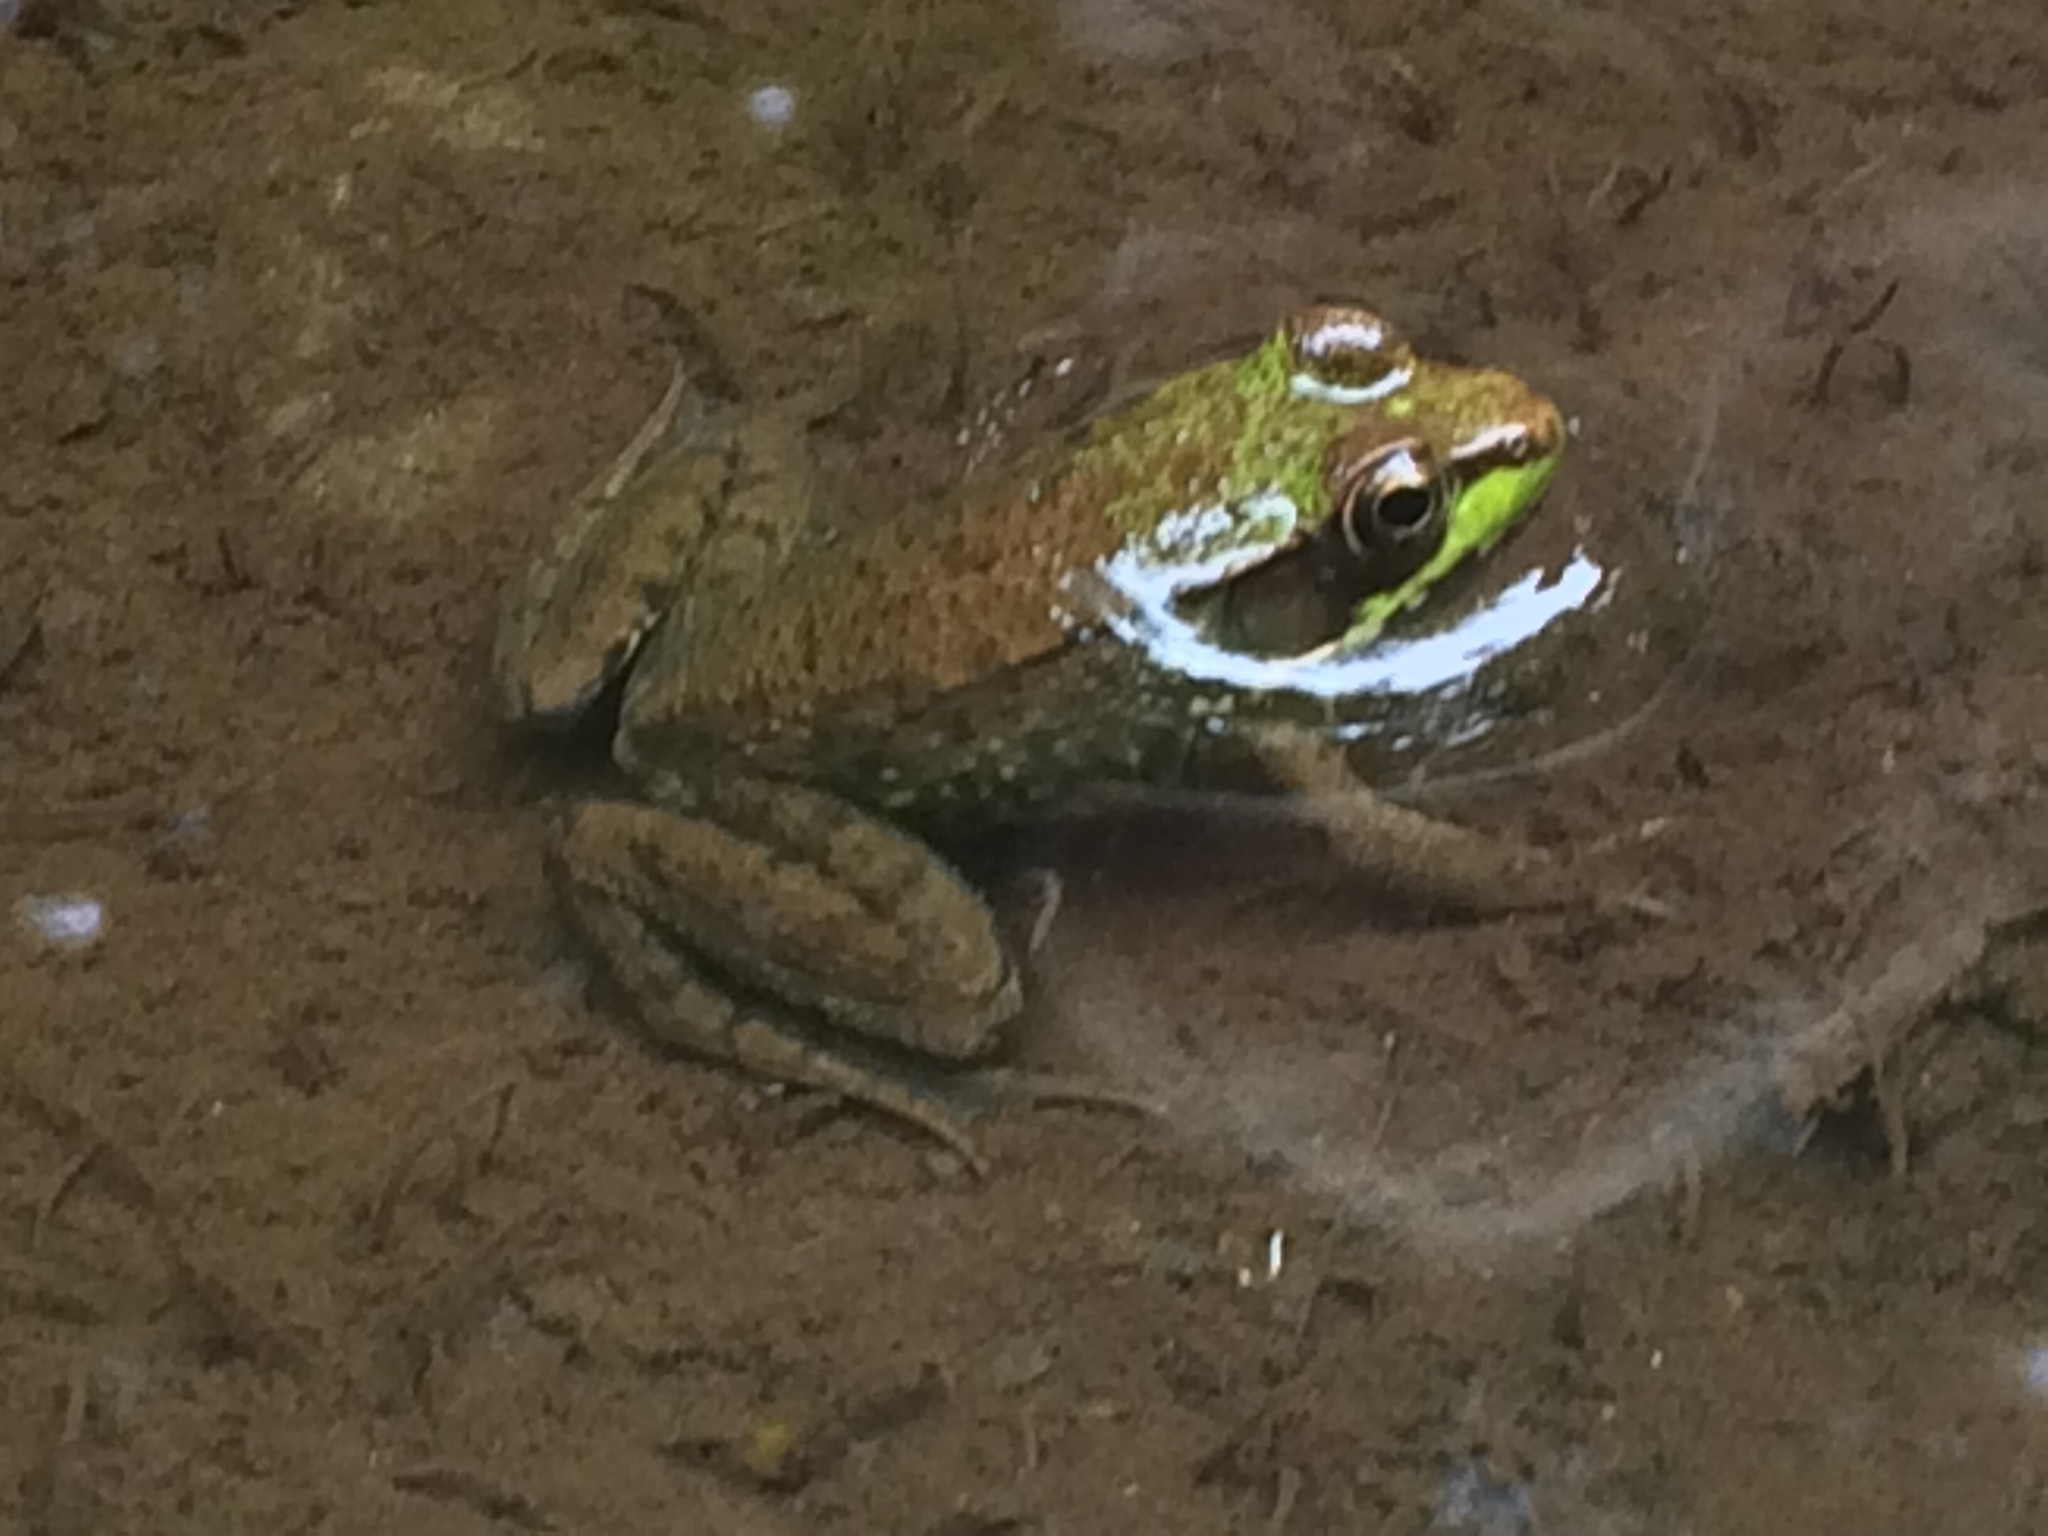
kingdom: Animalia
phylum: Chordata
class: Amphibia
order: Anura
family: Ranidae
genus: Lithobates
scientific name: Lithobates clamitans
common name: Green frog
